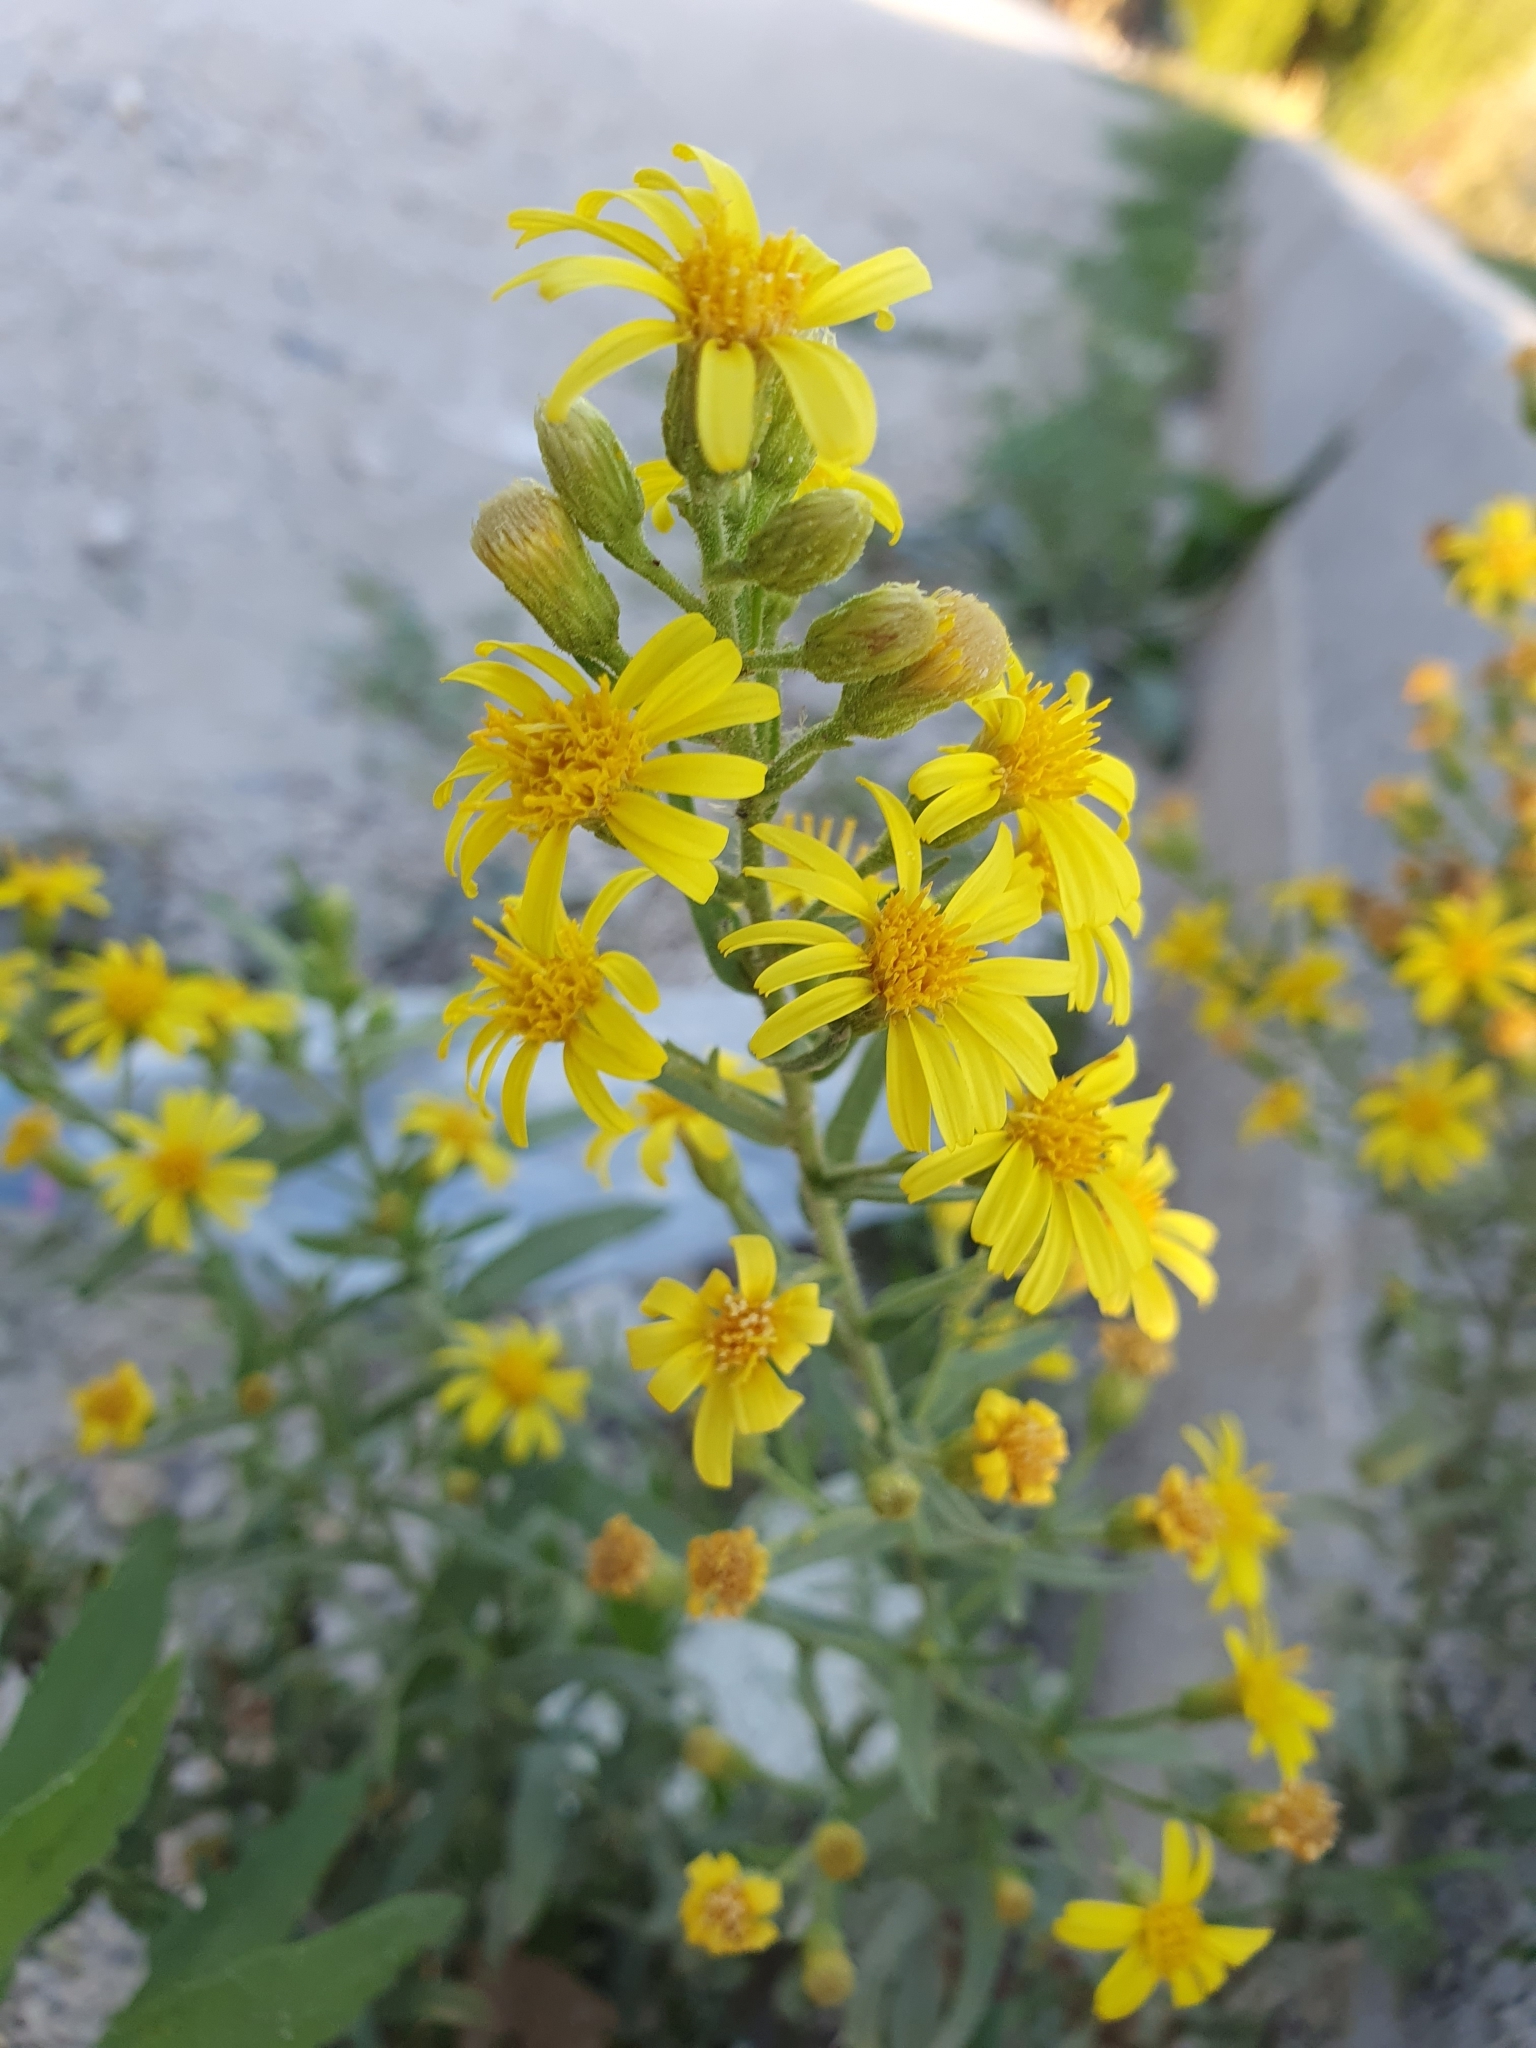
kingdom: Plantae
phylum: Tracheophyta
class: Magnoliopsida
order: Asterales
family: Asteraceae
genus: Dittrichia
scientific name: Dittrichia viscosa
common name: Woody fleabane
